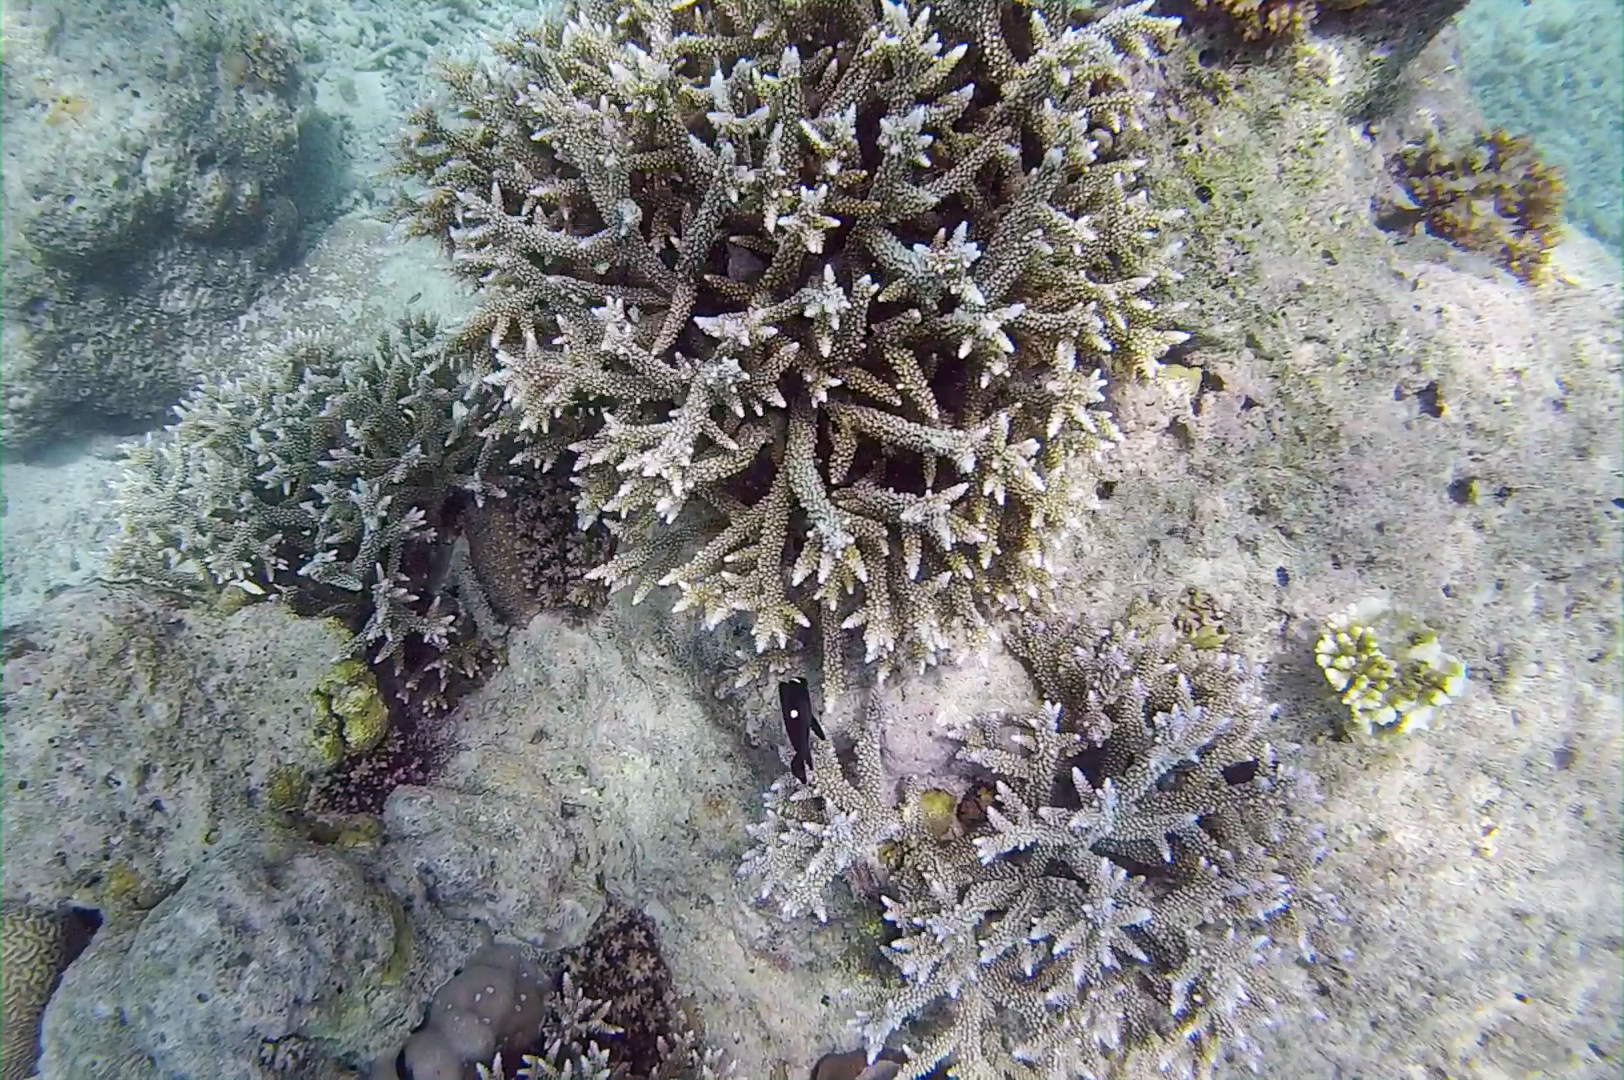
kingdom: Animalia
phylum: Chordata
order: Perciformes
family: Pomacentridae
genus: Dascyllus
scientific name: Dascyllus trimaculatus
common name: Threespot dascyllus
